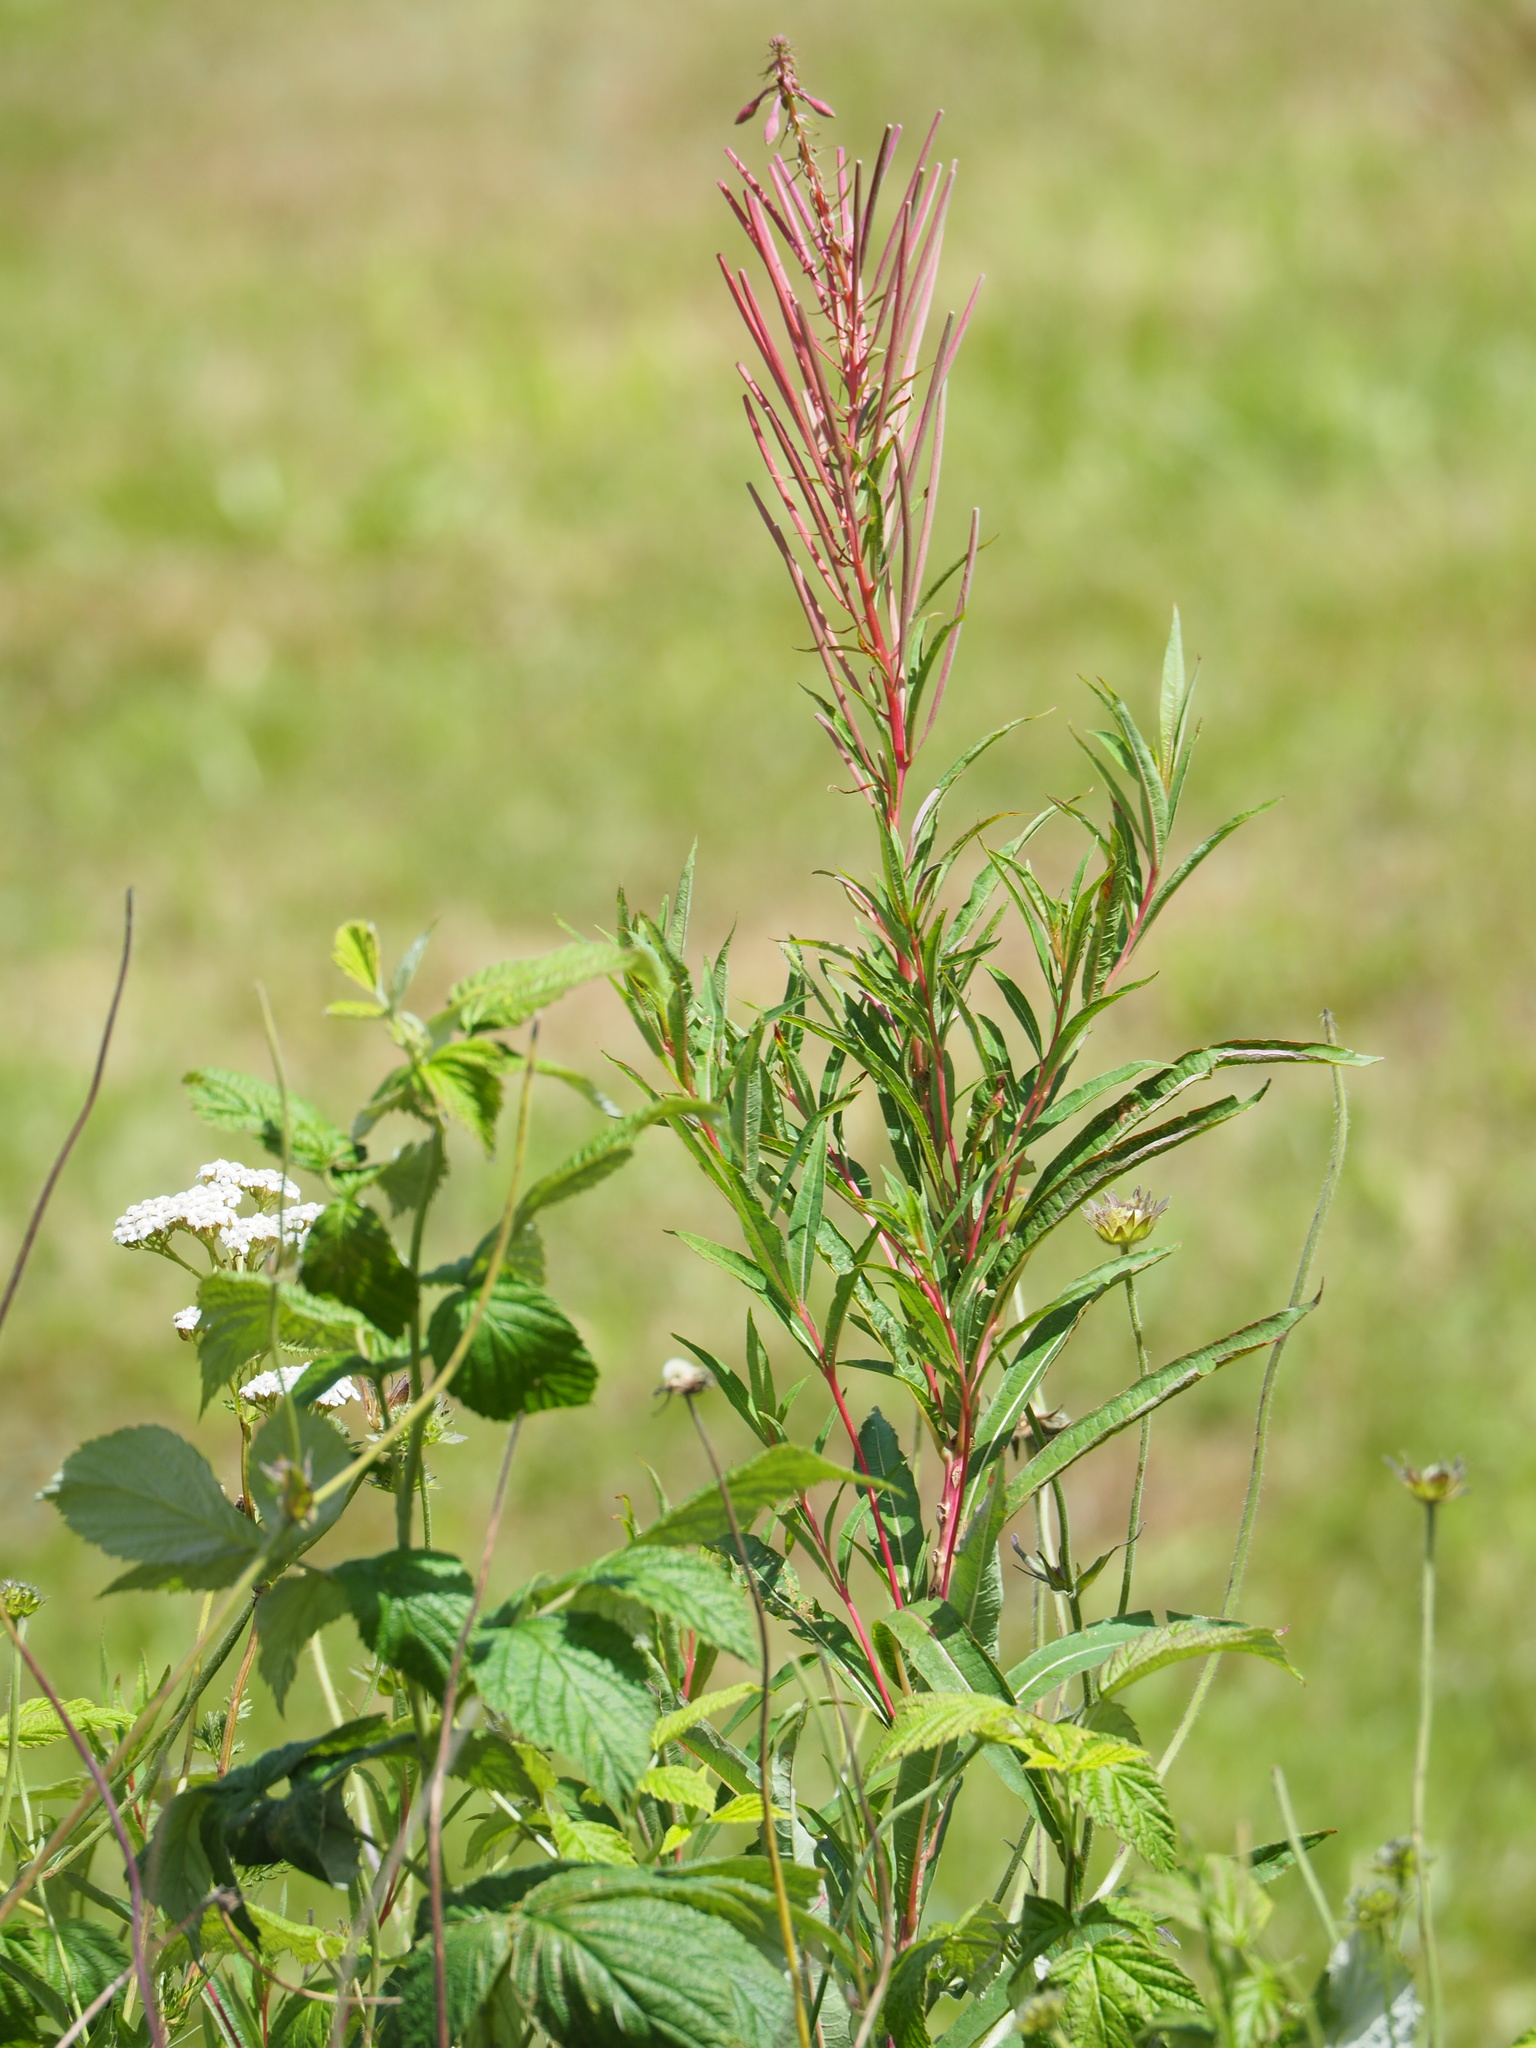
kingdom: Plantae
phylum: Tracheophyta
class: Magnoliopsida
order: Myrtales
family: Onagraceae
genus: Chamaenerion
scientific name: Chamaenerion angustifolium
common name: Fireweed
